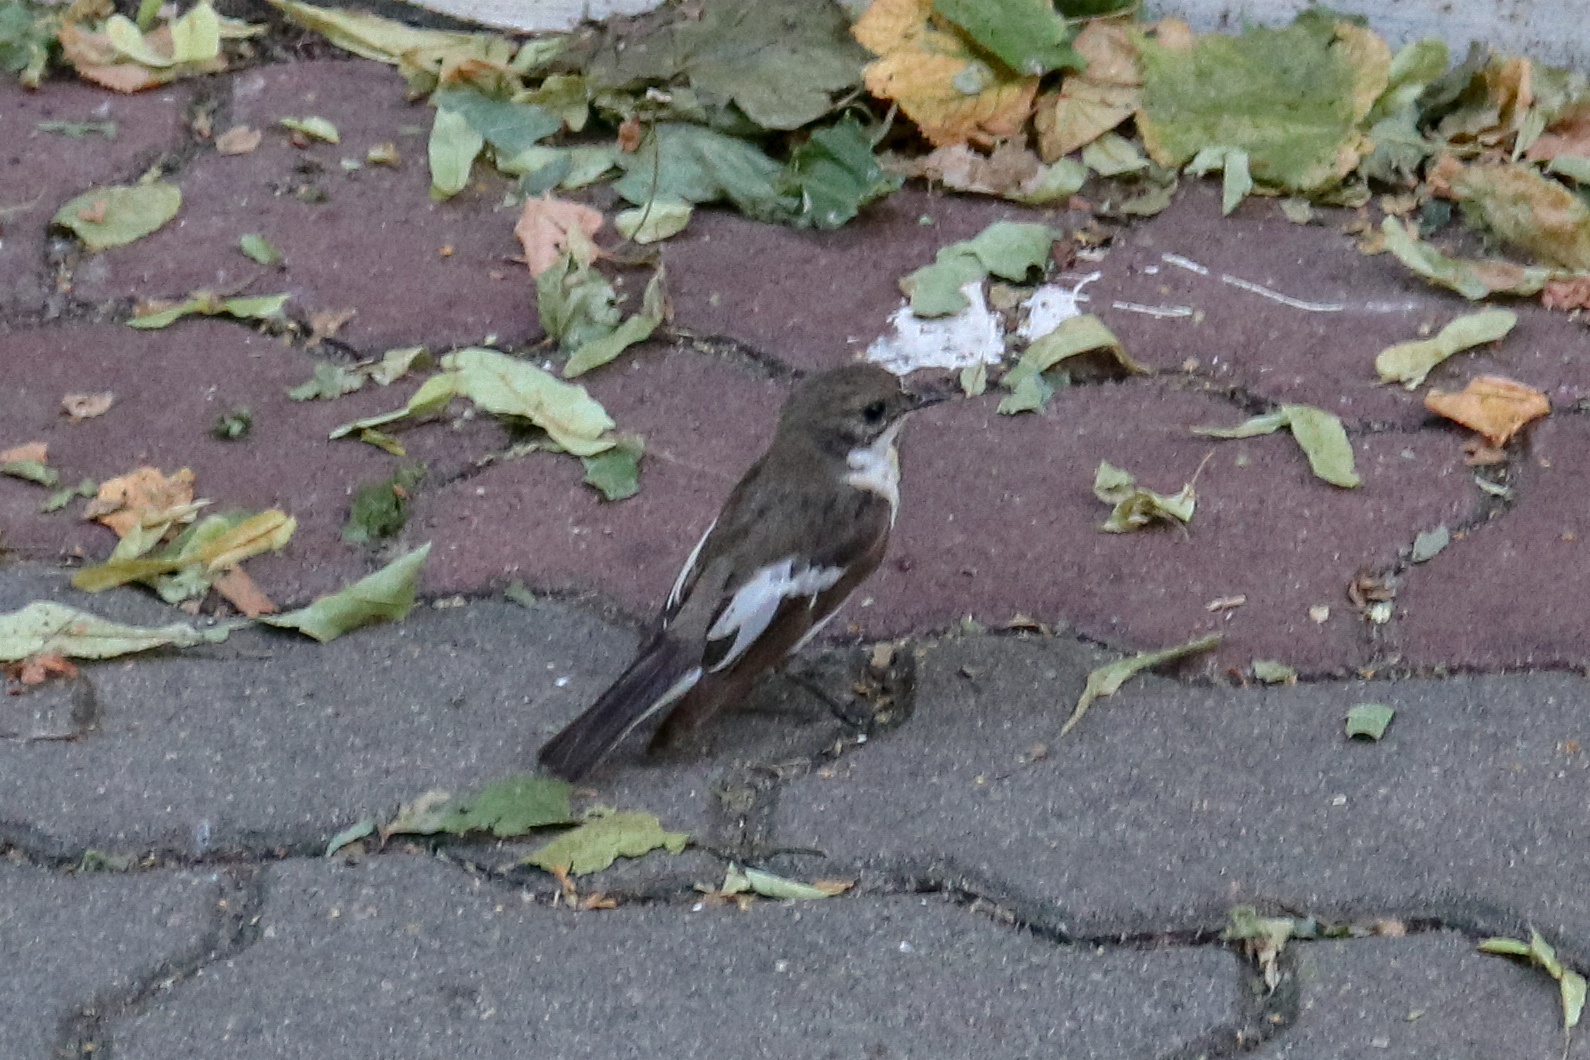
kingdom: Animalia
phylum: Chordata
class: Aves
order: Passeriformes
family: Muscicapidae
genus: Ficedula
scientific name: Ficedula hypoleuca
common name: European pied flycatcher
